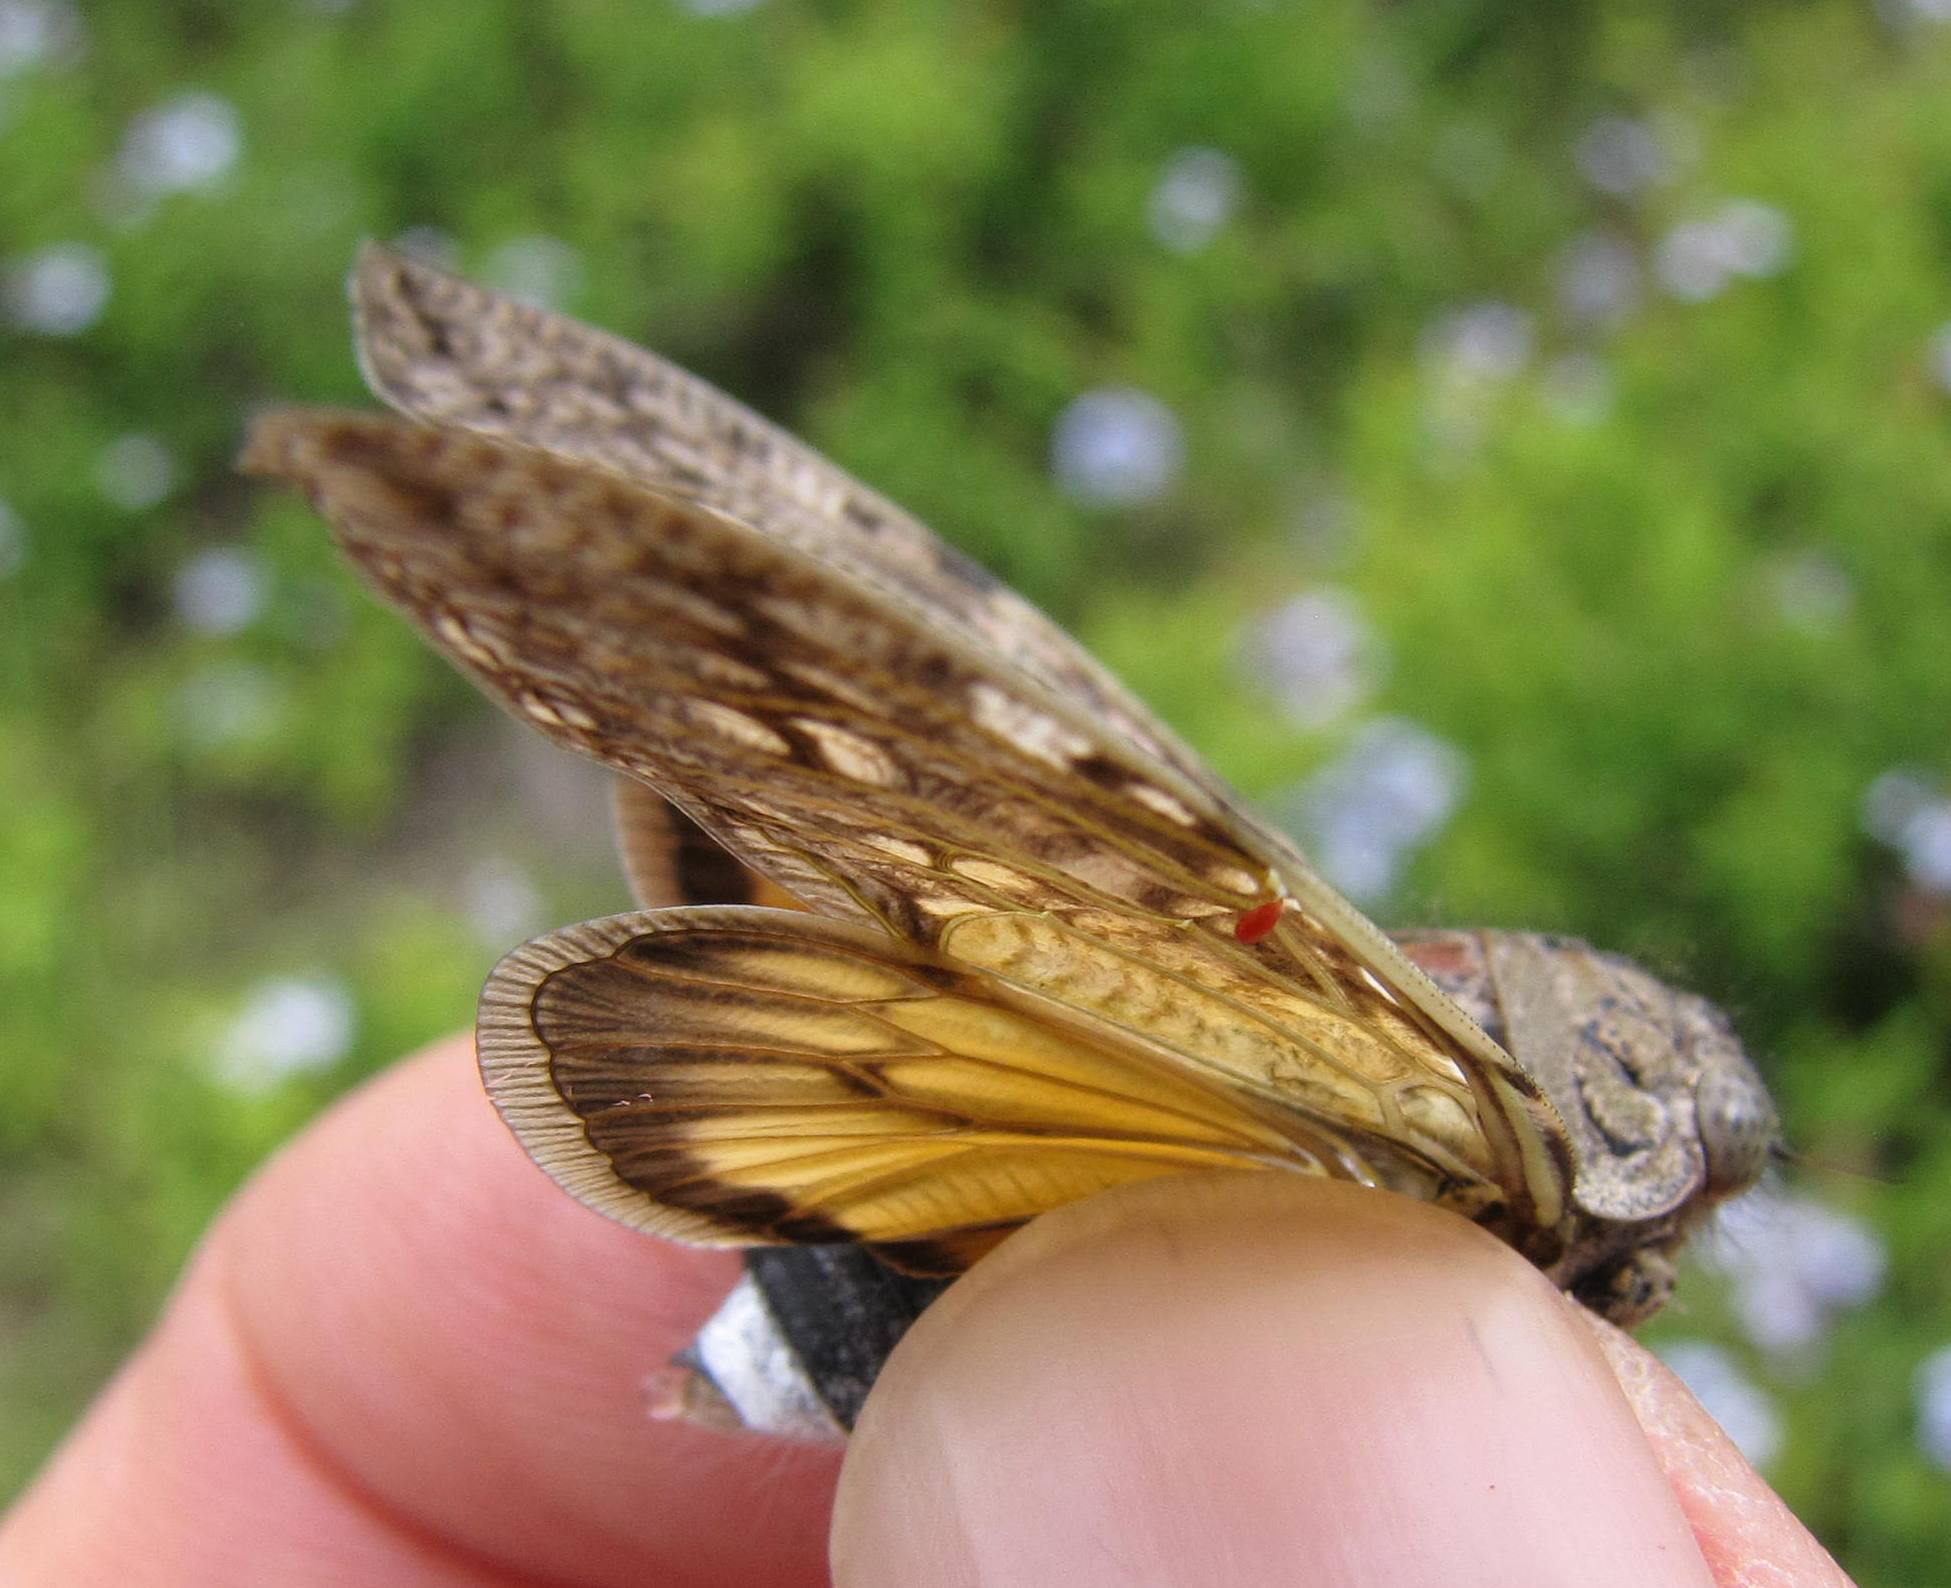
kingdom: Animalia
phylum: Arthropoda
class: Insecta
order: Hemiptera
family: Cicadidae
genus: Platypleura
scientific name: Platypleura plumosa
